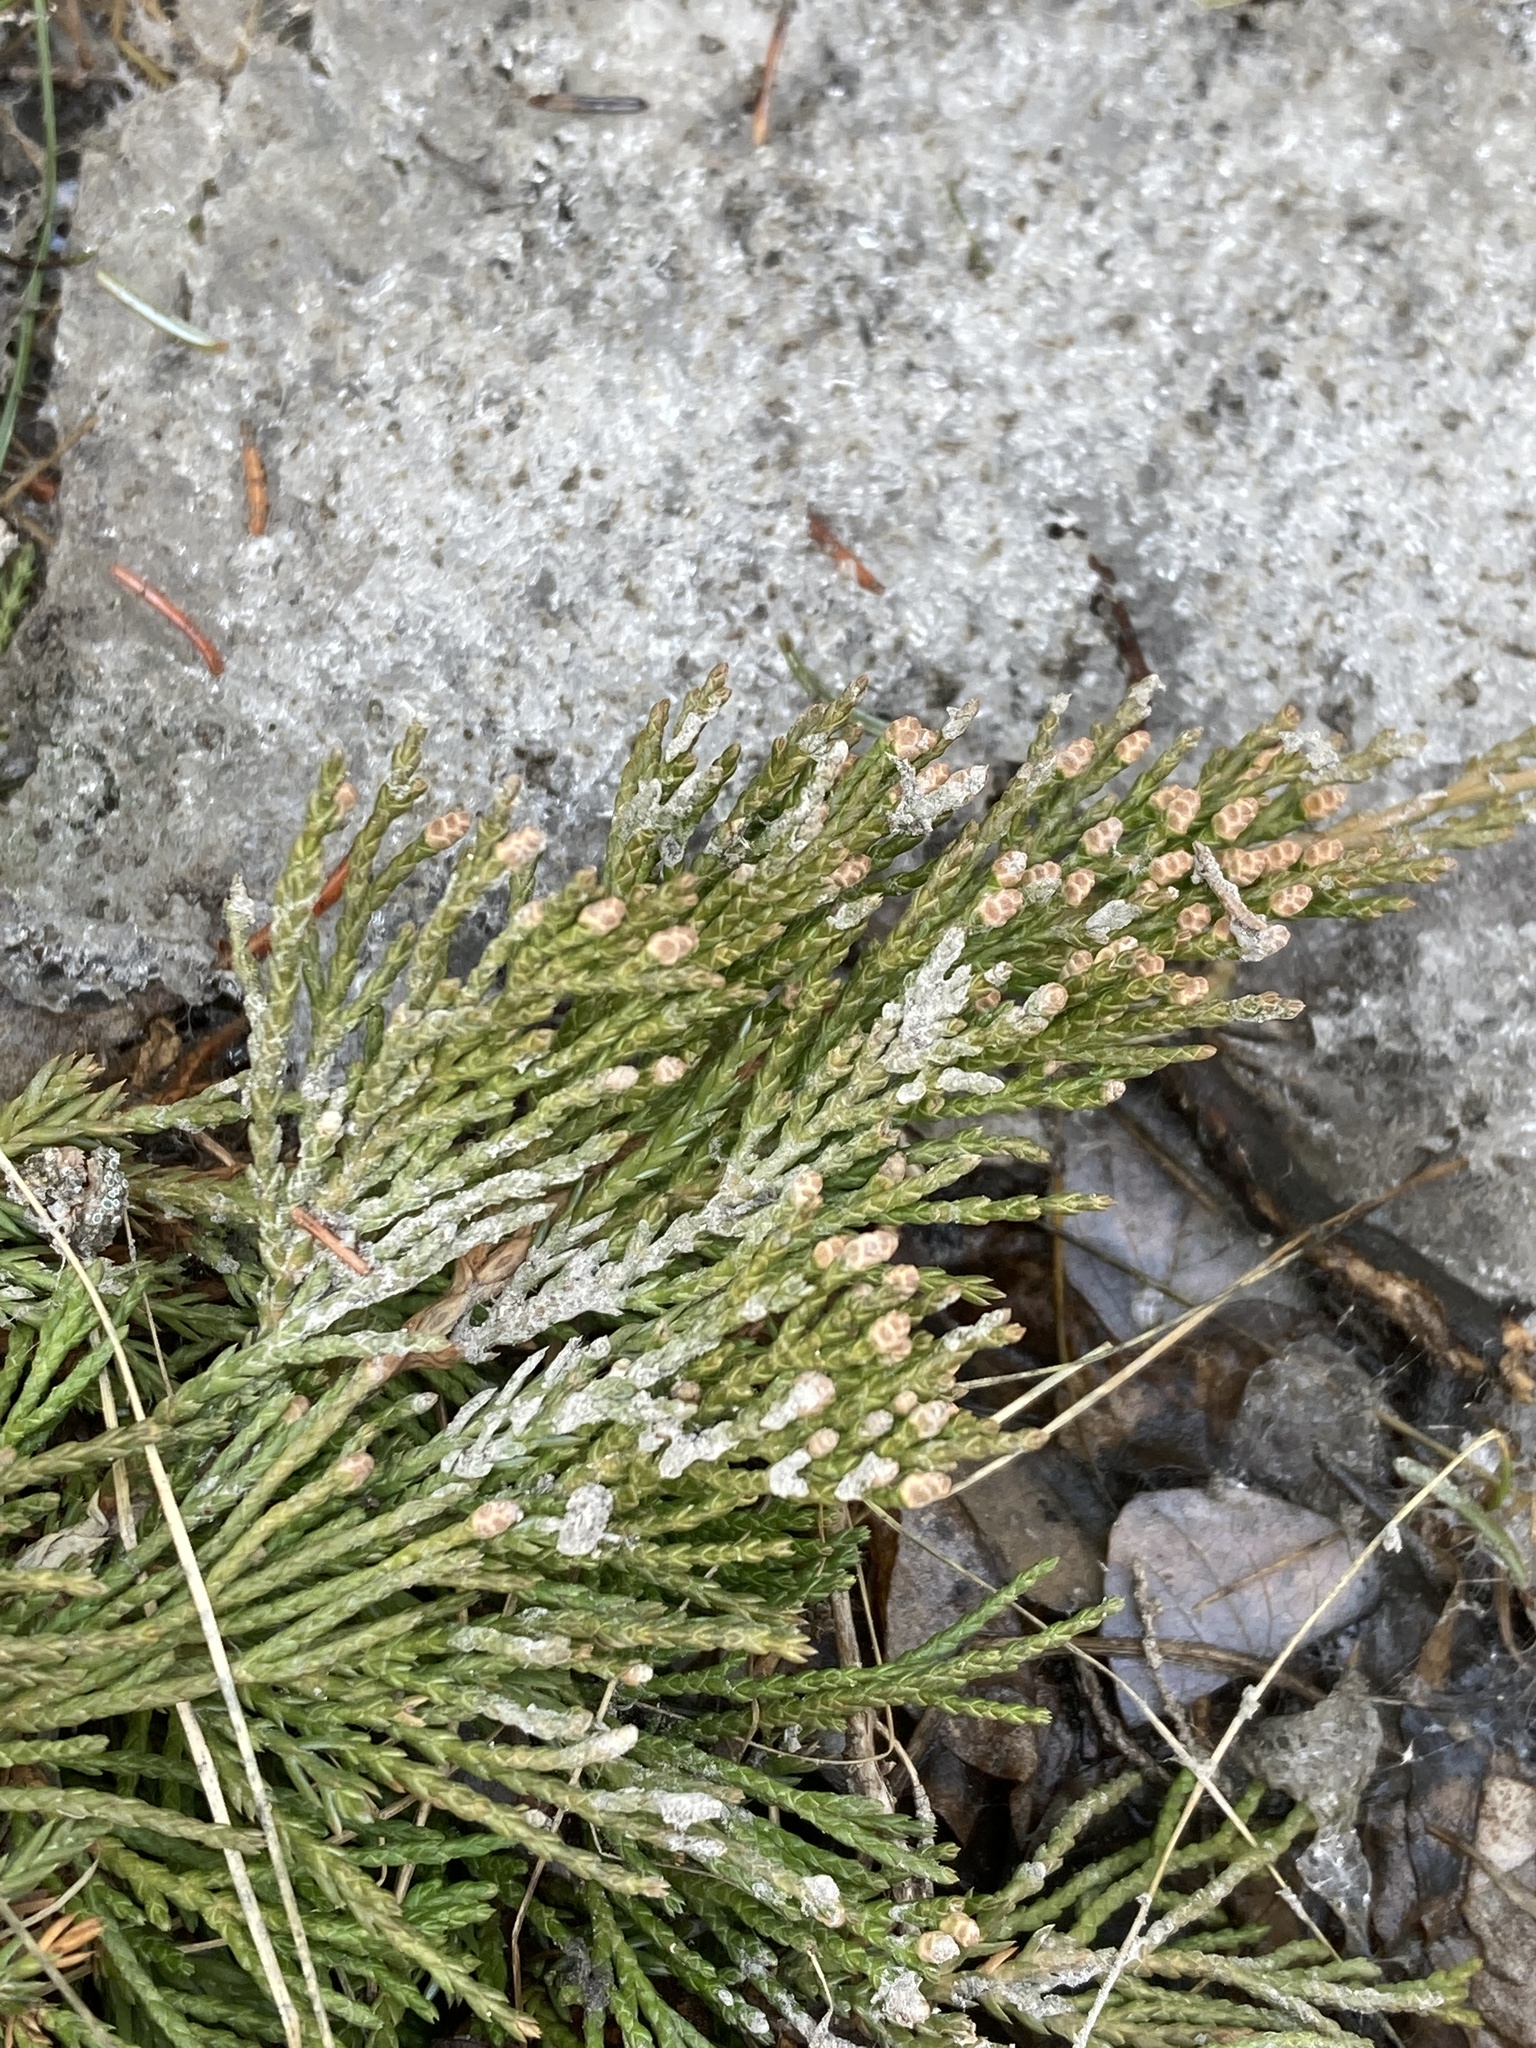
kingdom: Plantae
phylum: Tracheophyta
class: Pinopsida
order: Pinales
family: Cupressaceae
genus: Juniperus
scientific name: Juniperus horizontalis
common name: Creeping juniper
